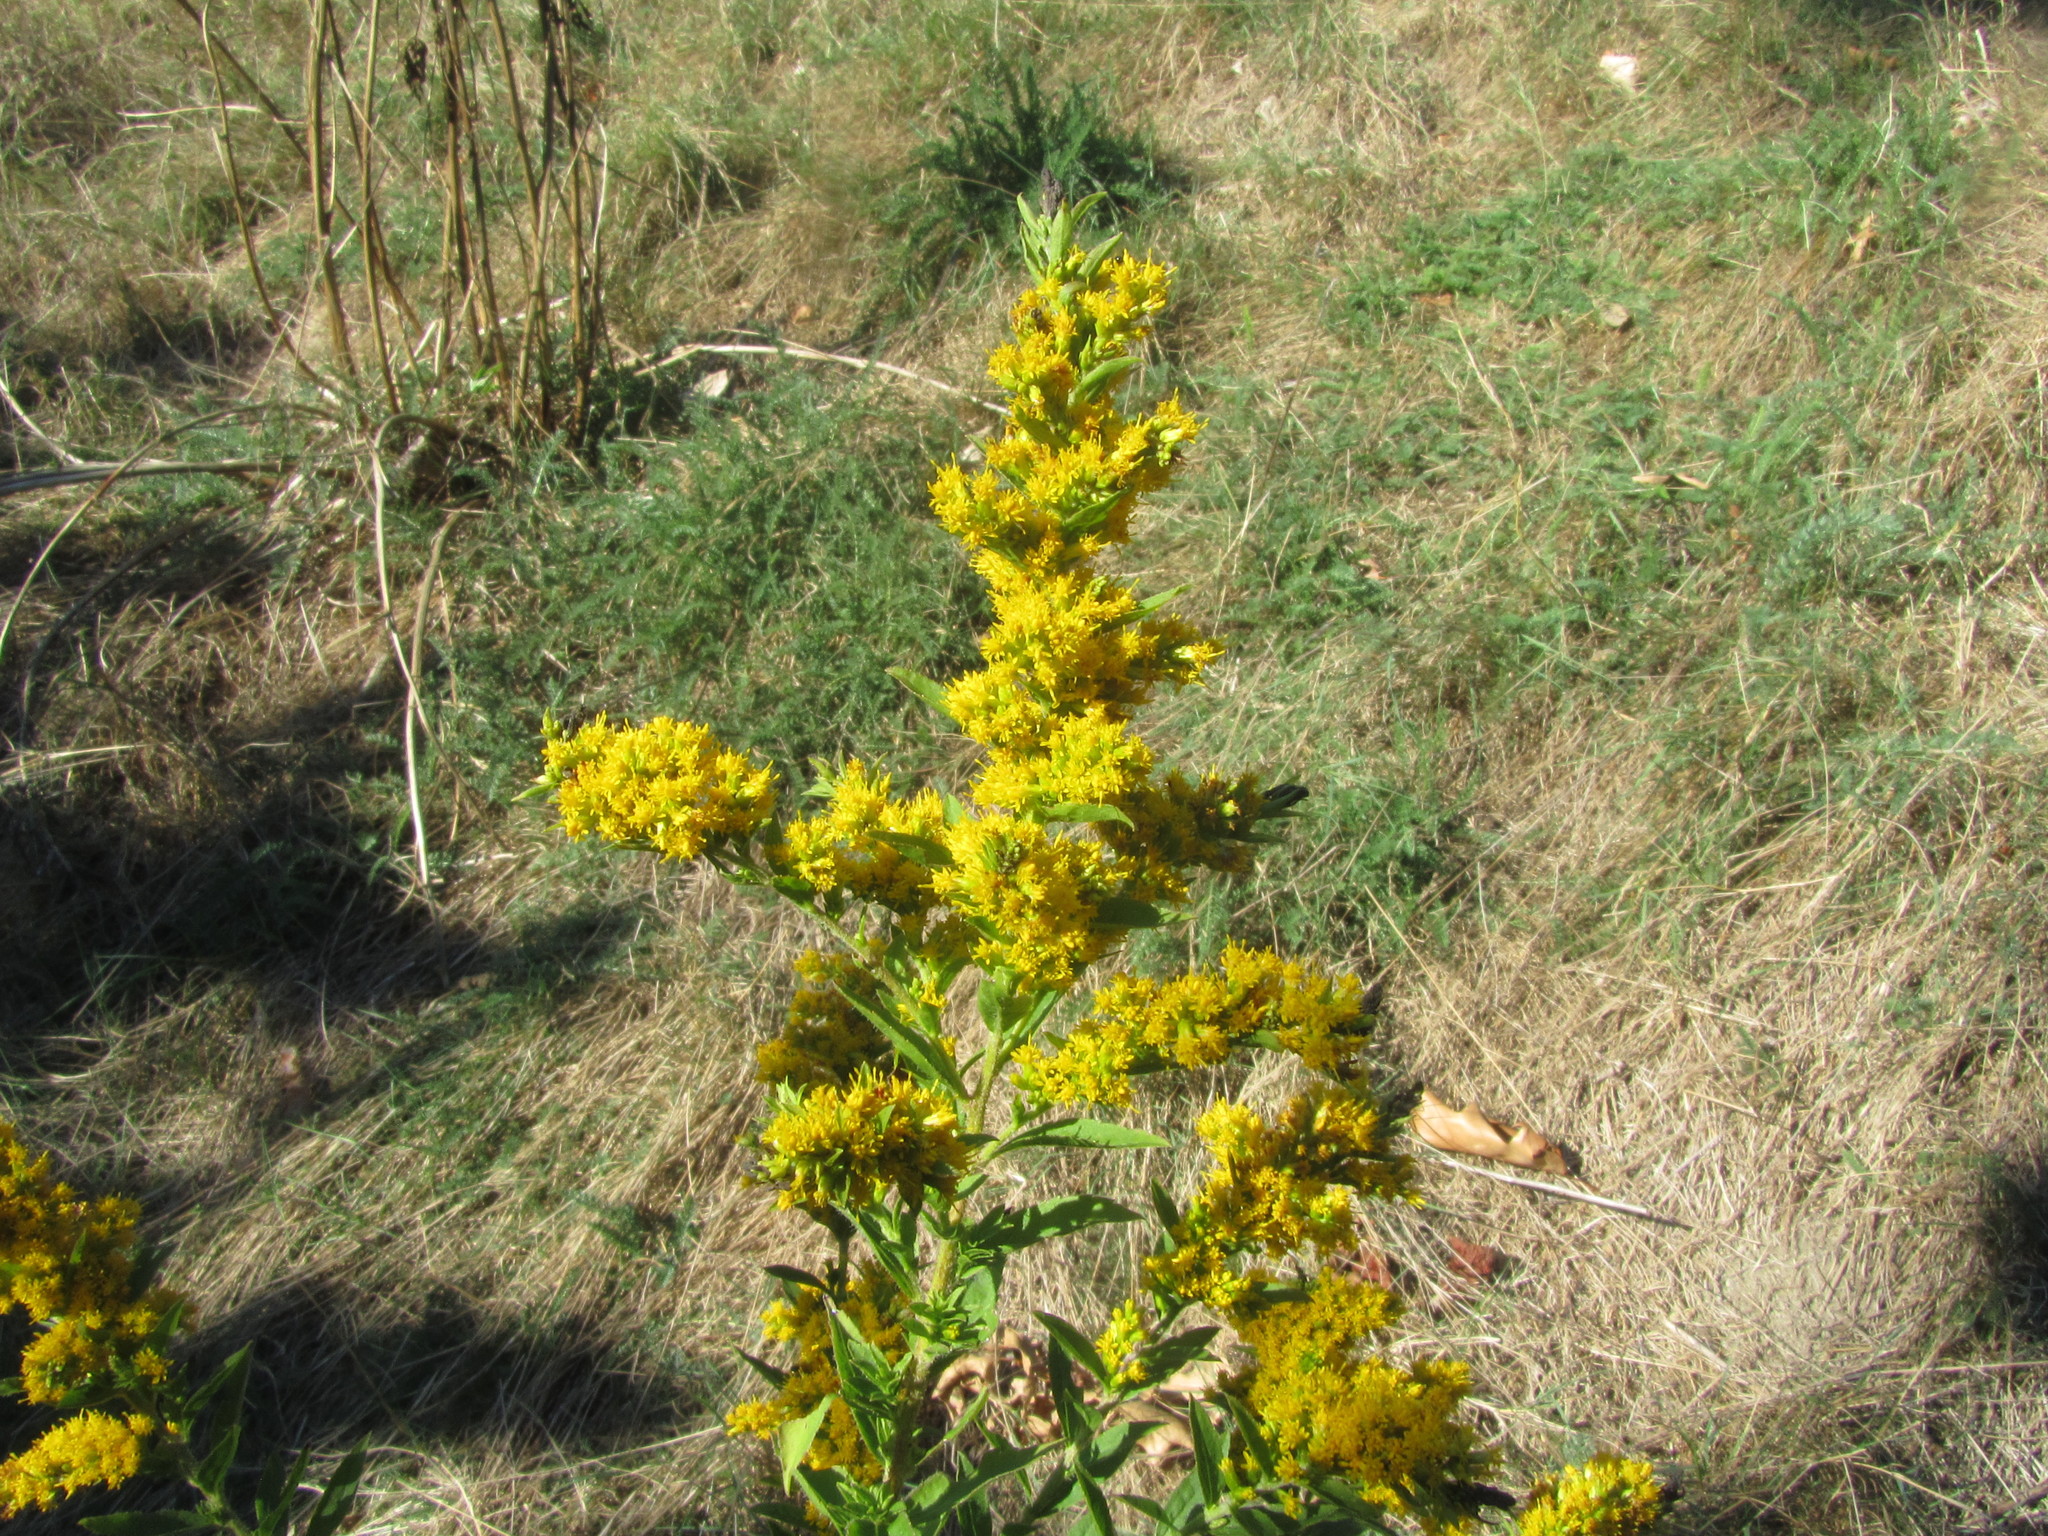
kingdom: Plantae
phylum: Tracheophyta
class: Magnoliopsida
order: Asterales
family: Asteraceae
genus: Solidago
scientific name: Solidago rugosa
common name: Rough-stemmed goldenrod
